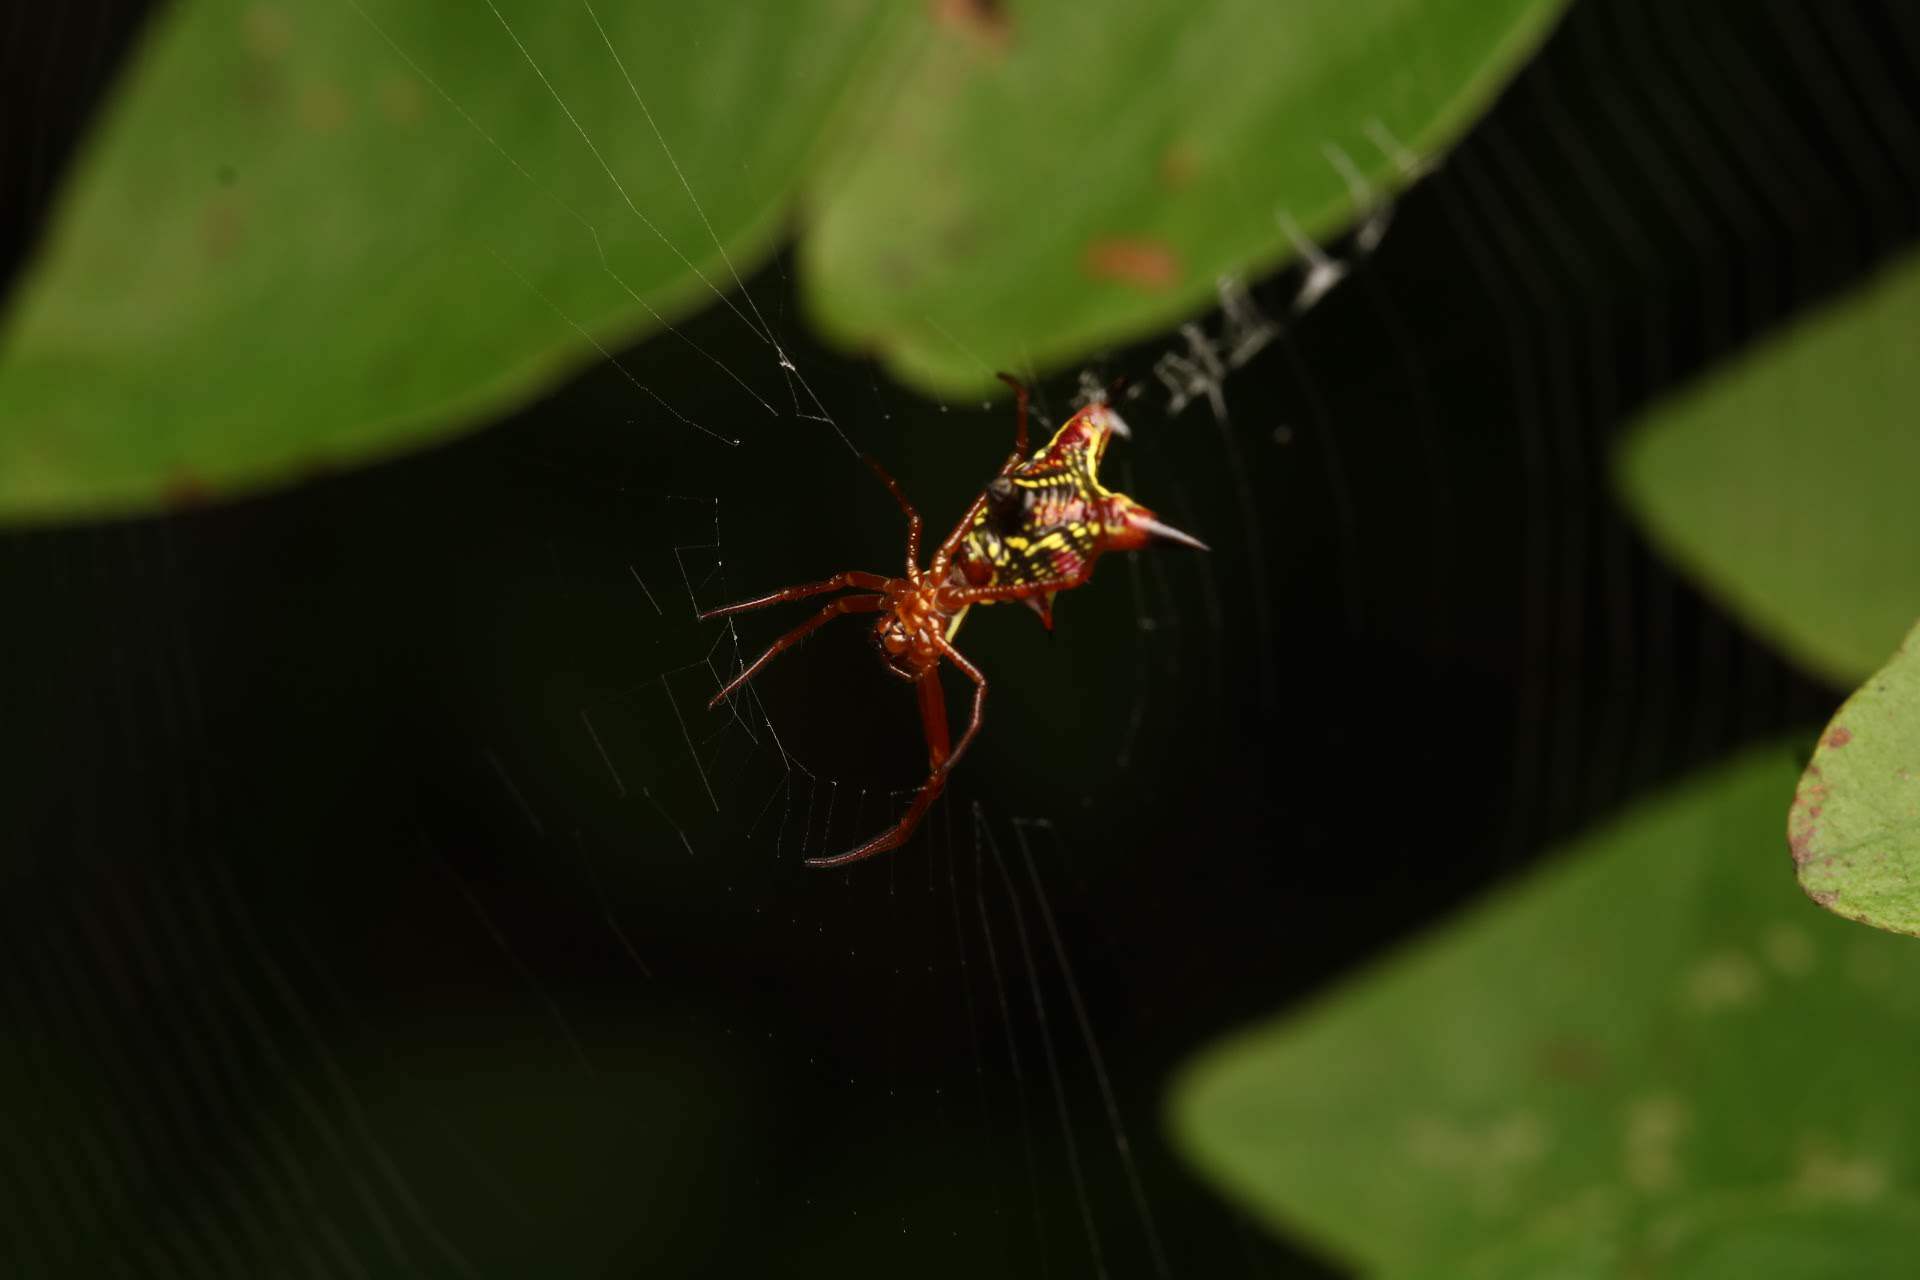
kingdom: Animalia
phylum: Arthropoda
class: Arachnida
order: Araneae
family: Araneidae
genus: Micrathena
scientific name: Micrathena sagittata
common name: Orb weavers
